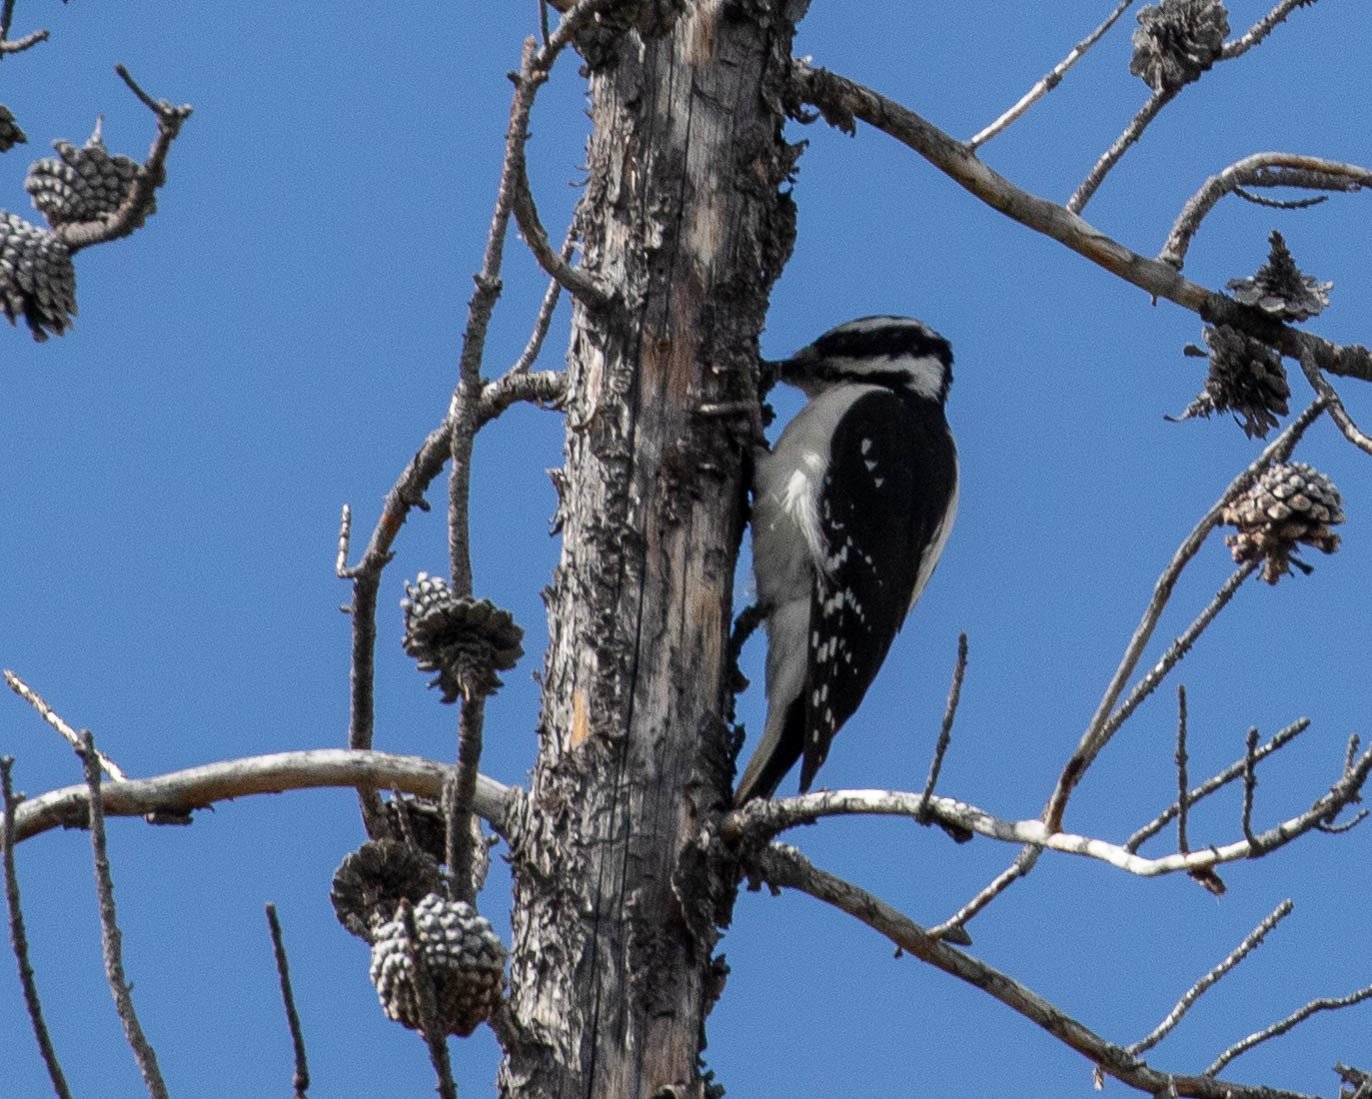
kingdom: Animalia
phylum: Chordata
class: Aves
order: Piciformes
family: Picidae
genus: Leuconotopicus
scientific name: Leuconotopicus villosus
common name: Hairy woodpecker
